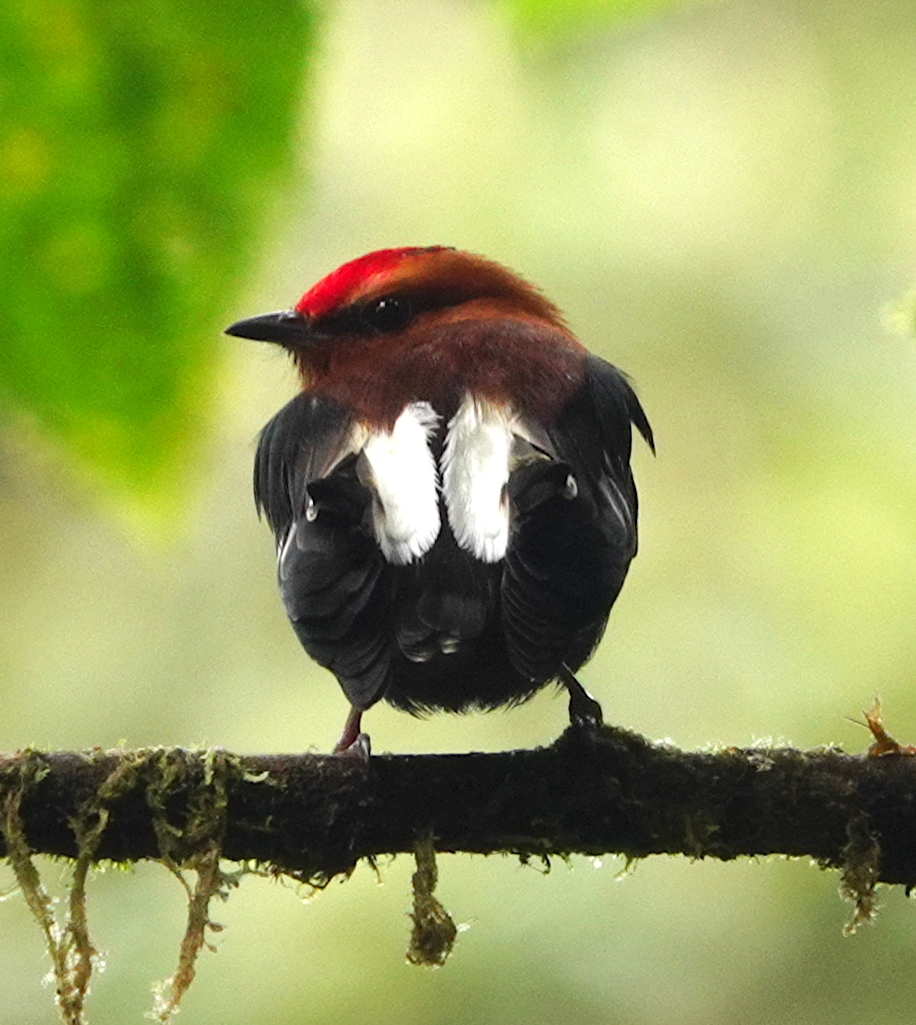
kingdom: Animalia
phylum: Chordata
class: Aves
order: Passeriformes
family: Pipridae
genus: Machaeropterus
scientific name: Machaeropterus deliciosus
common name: Club-winged manakin
